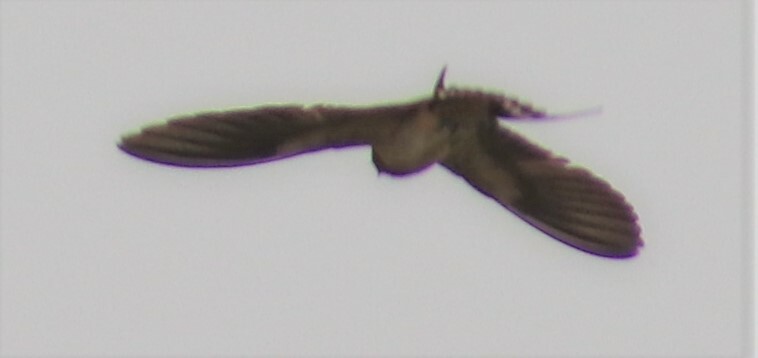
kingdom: Animalia
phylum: Chordata
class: Aves
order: Passeriformes
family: Hirundinidae
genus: Hirundo
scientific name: Hirundo rustica
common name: Barn swallow
